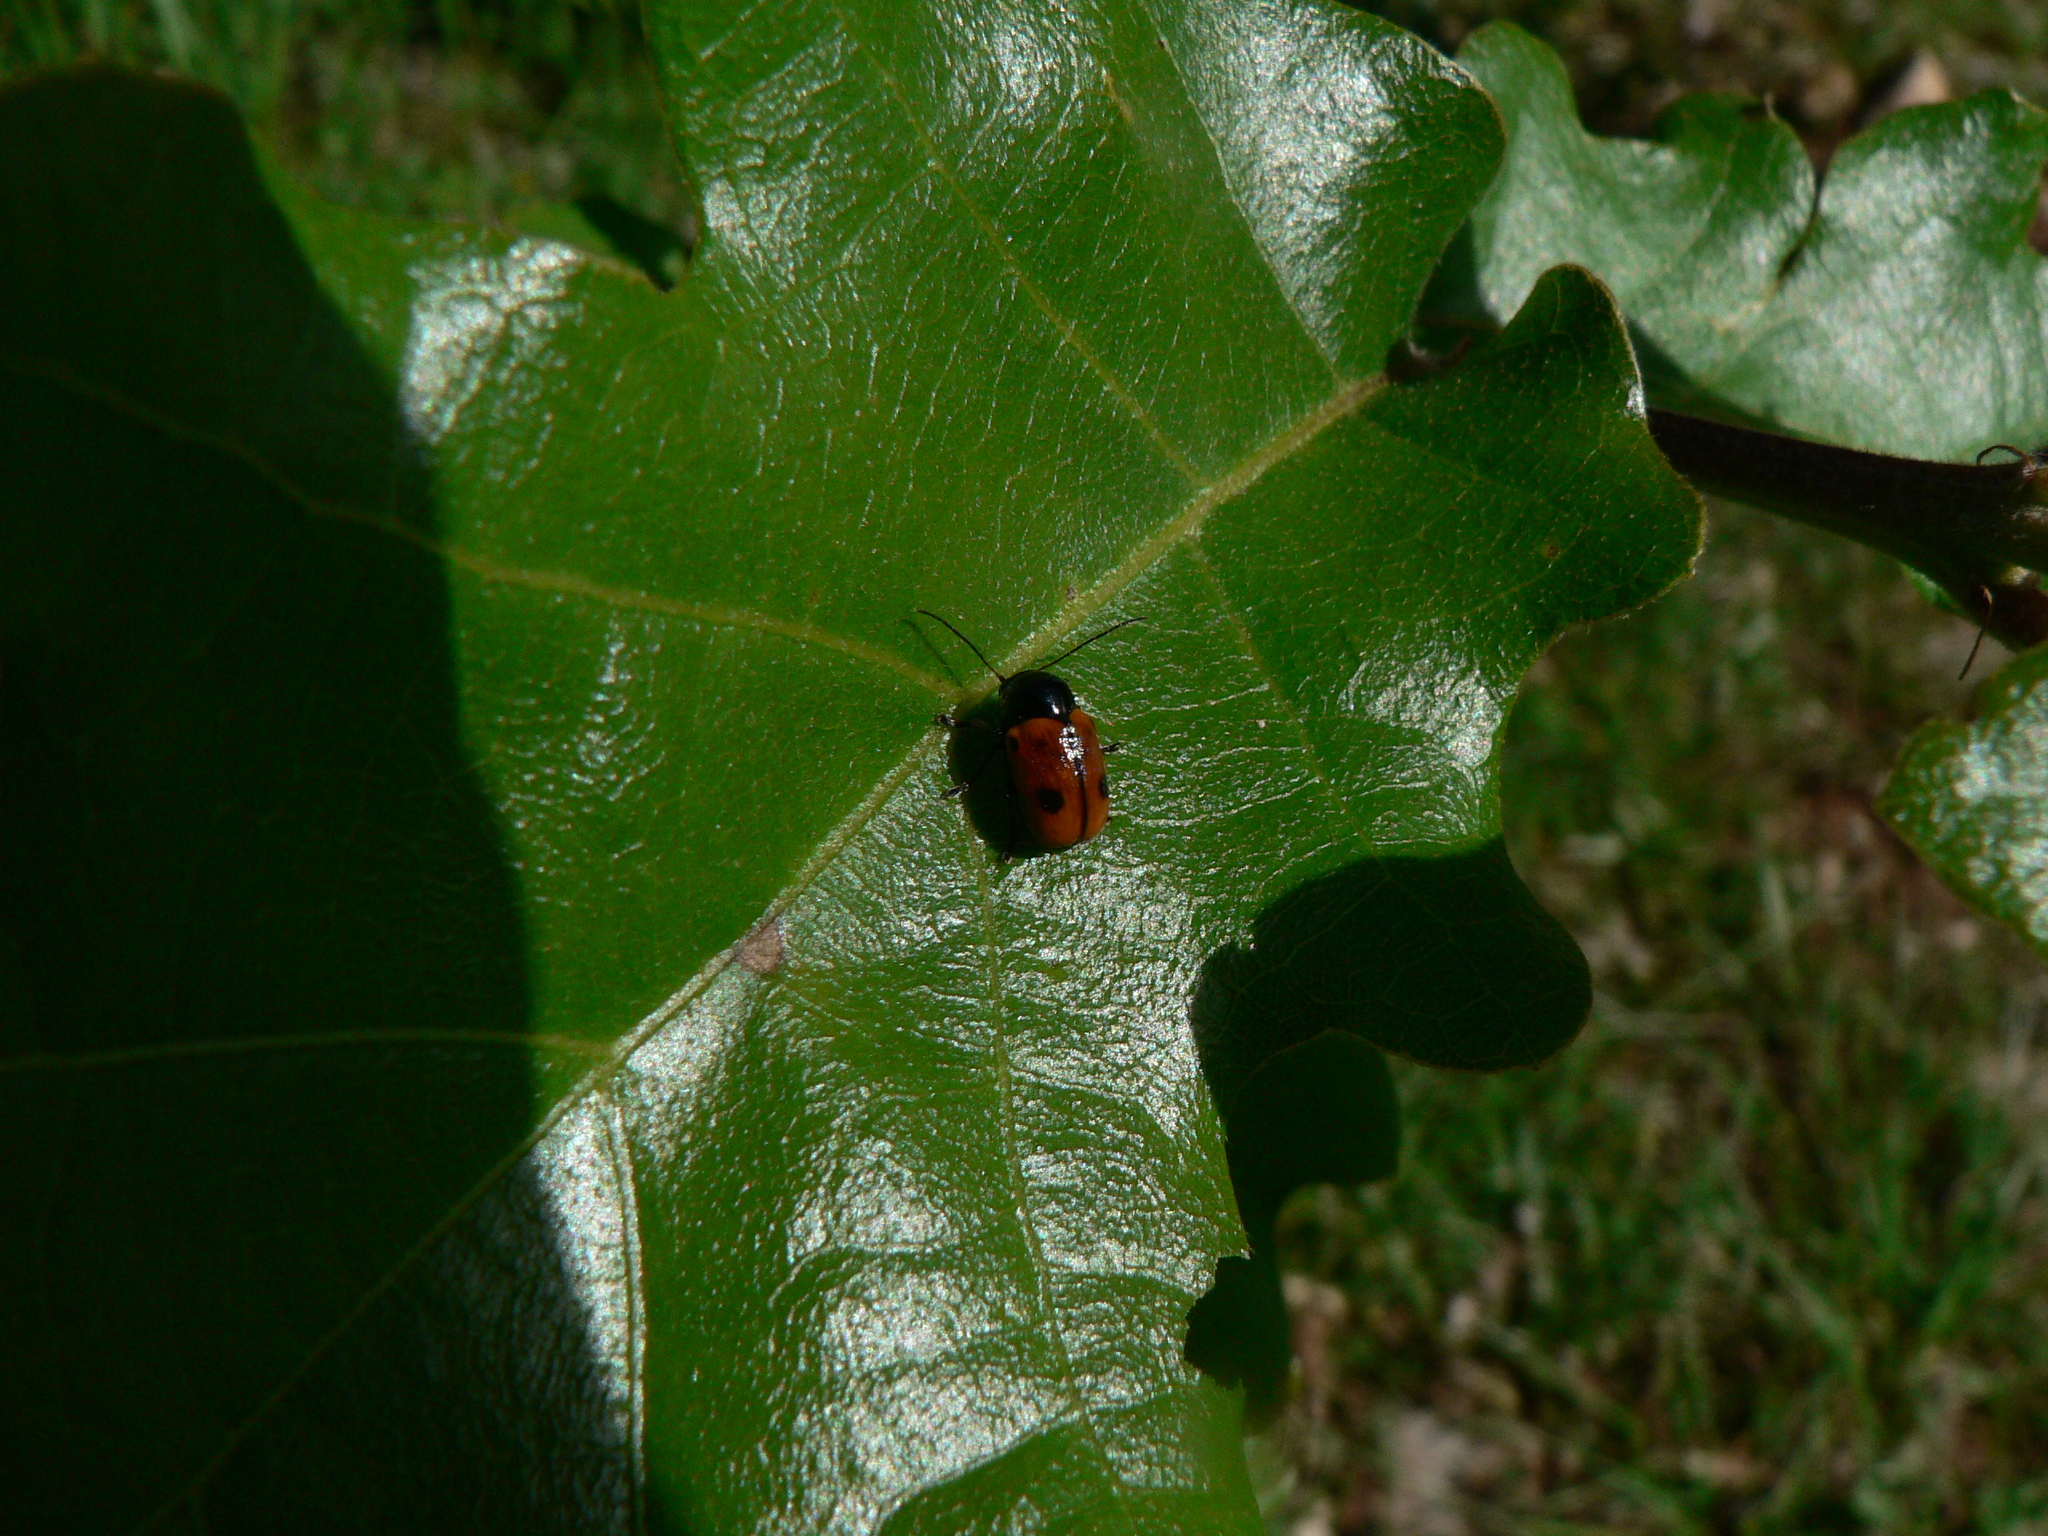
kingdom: Animalia
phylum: Arthropoda
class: Insecta
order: Coleoptera
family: Chrysomelidae
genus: Chiridopsis
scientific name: Chiridopsis bipunctata
